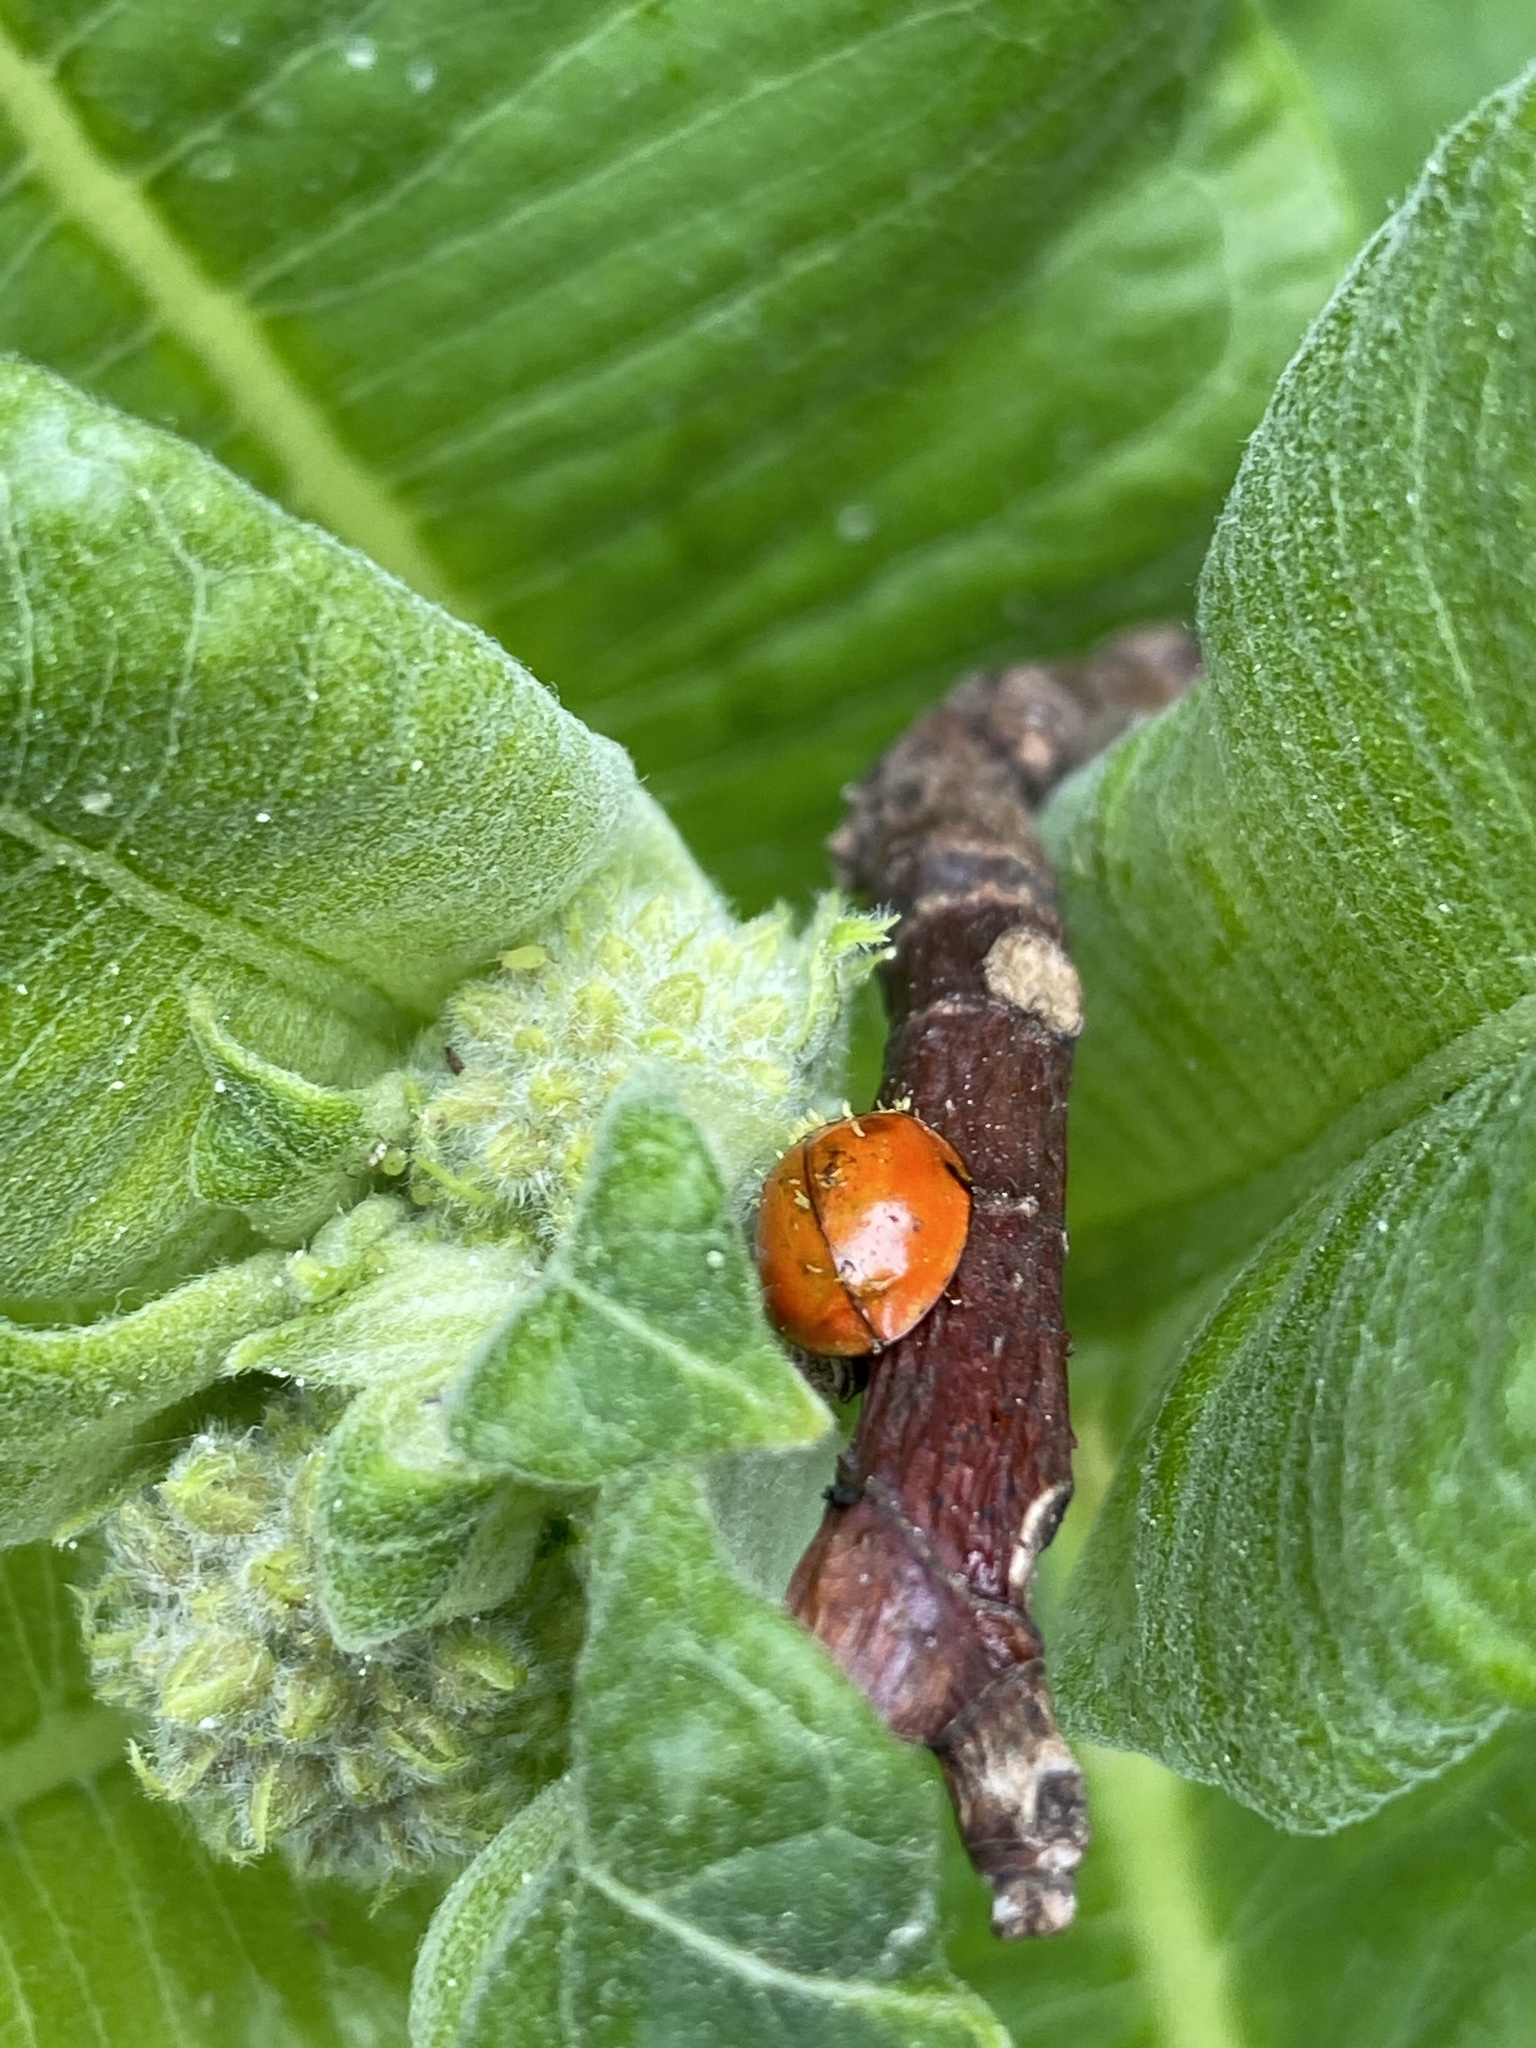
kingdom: Animalia
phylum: Arthropoda
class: Insecta
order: Coleoptera
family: Coccinellidae
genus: Harmonia
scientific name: Harmonia axyridis
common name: Harlequin ladybird
